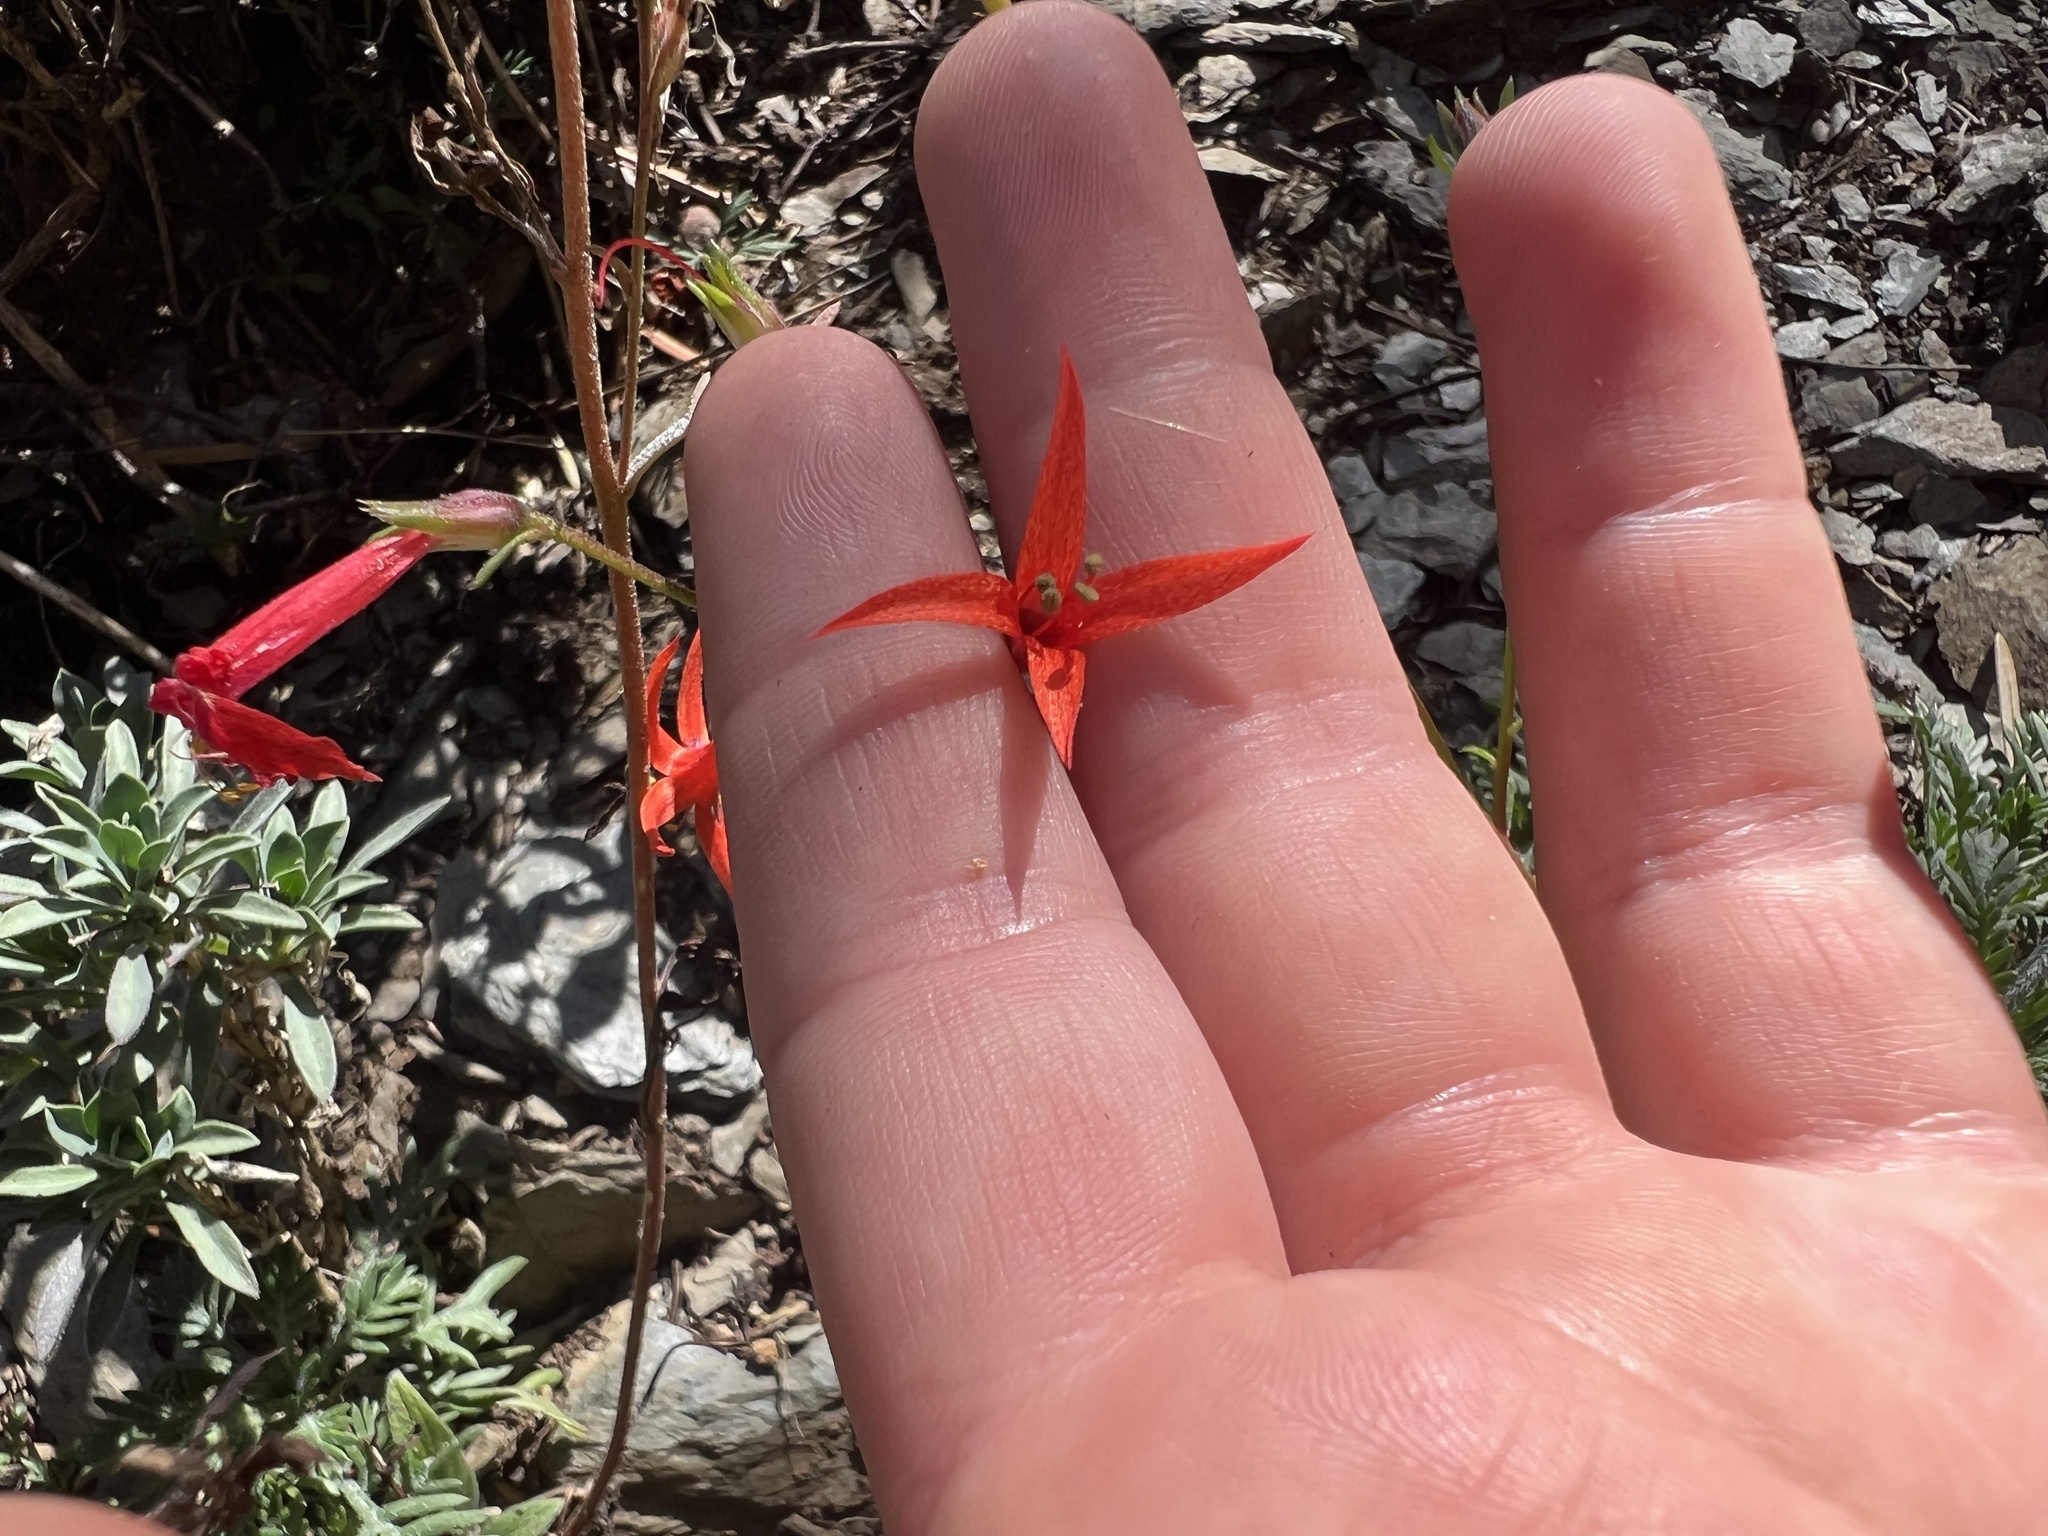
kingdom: Plantae
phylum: Tracheophyta
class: Magnoliopsida
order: Ericales
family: Polemoniaceae
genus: Ipomopsis
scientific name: Ipomopsis aggregata
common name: Scarlet gilia
